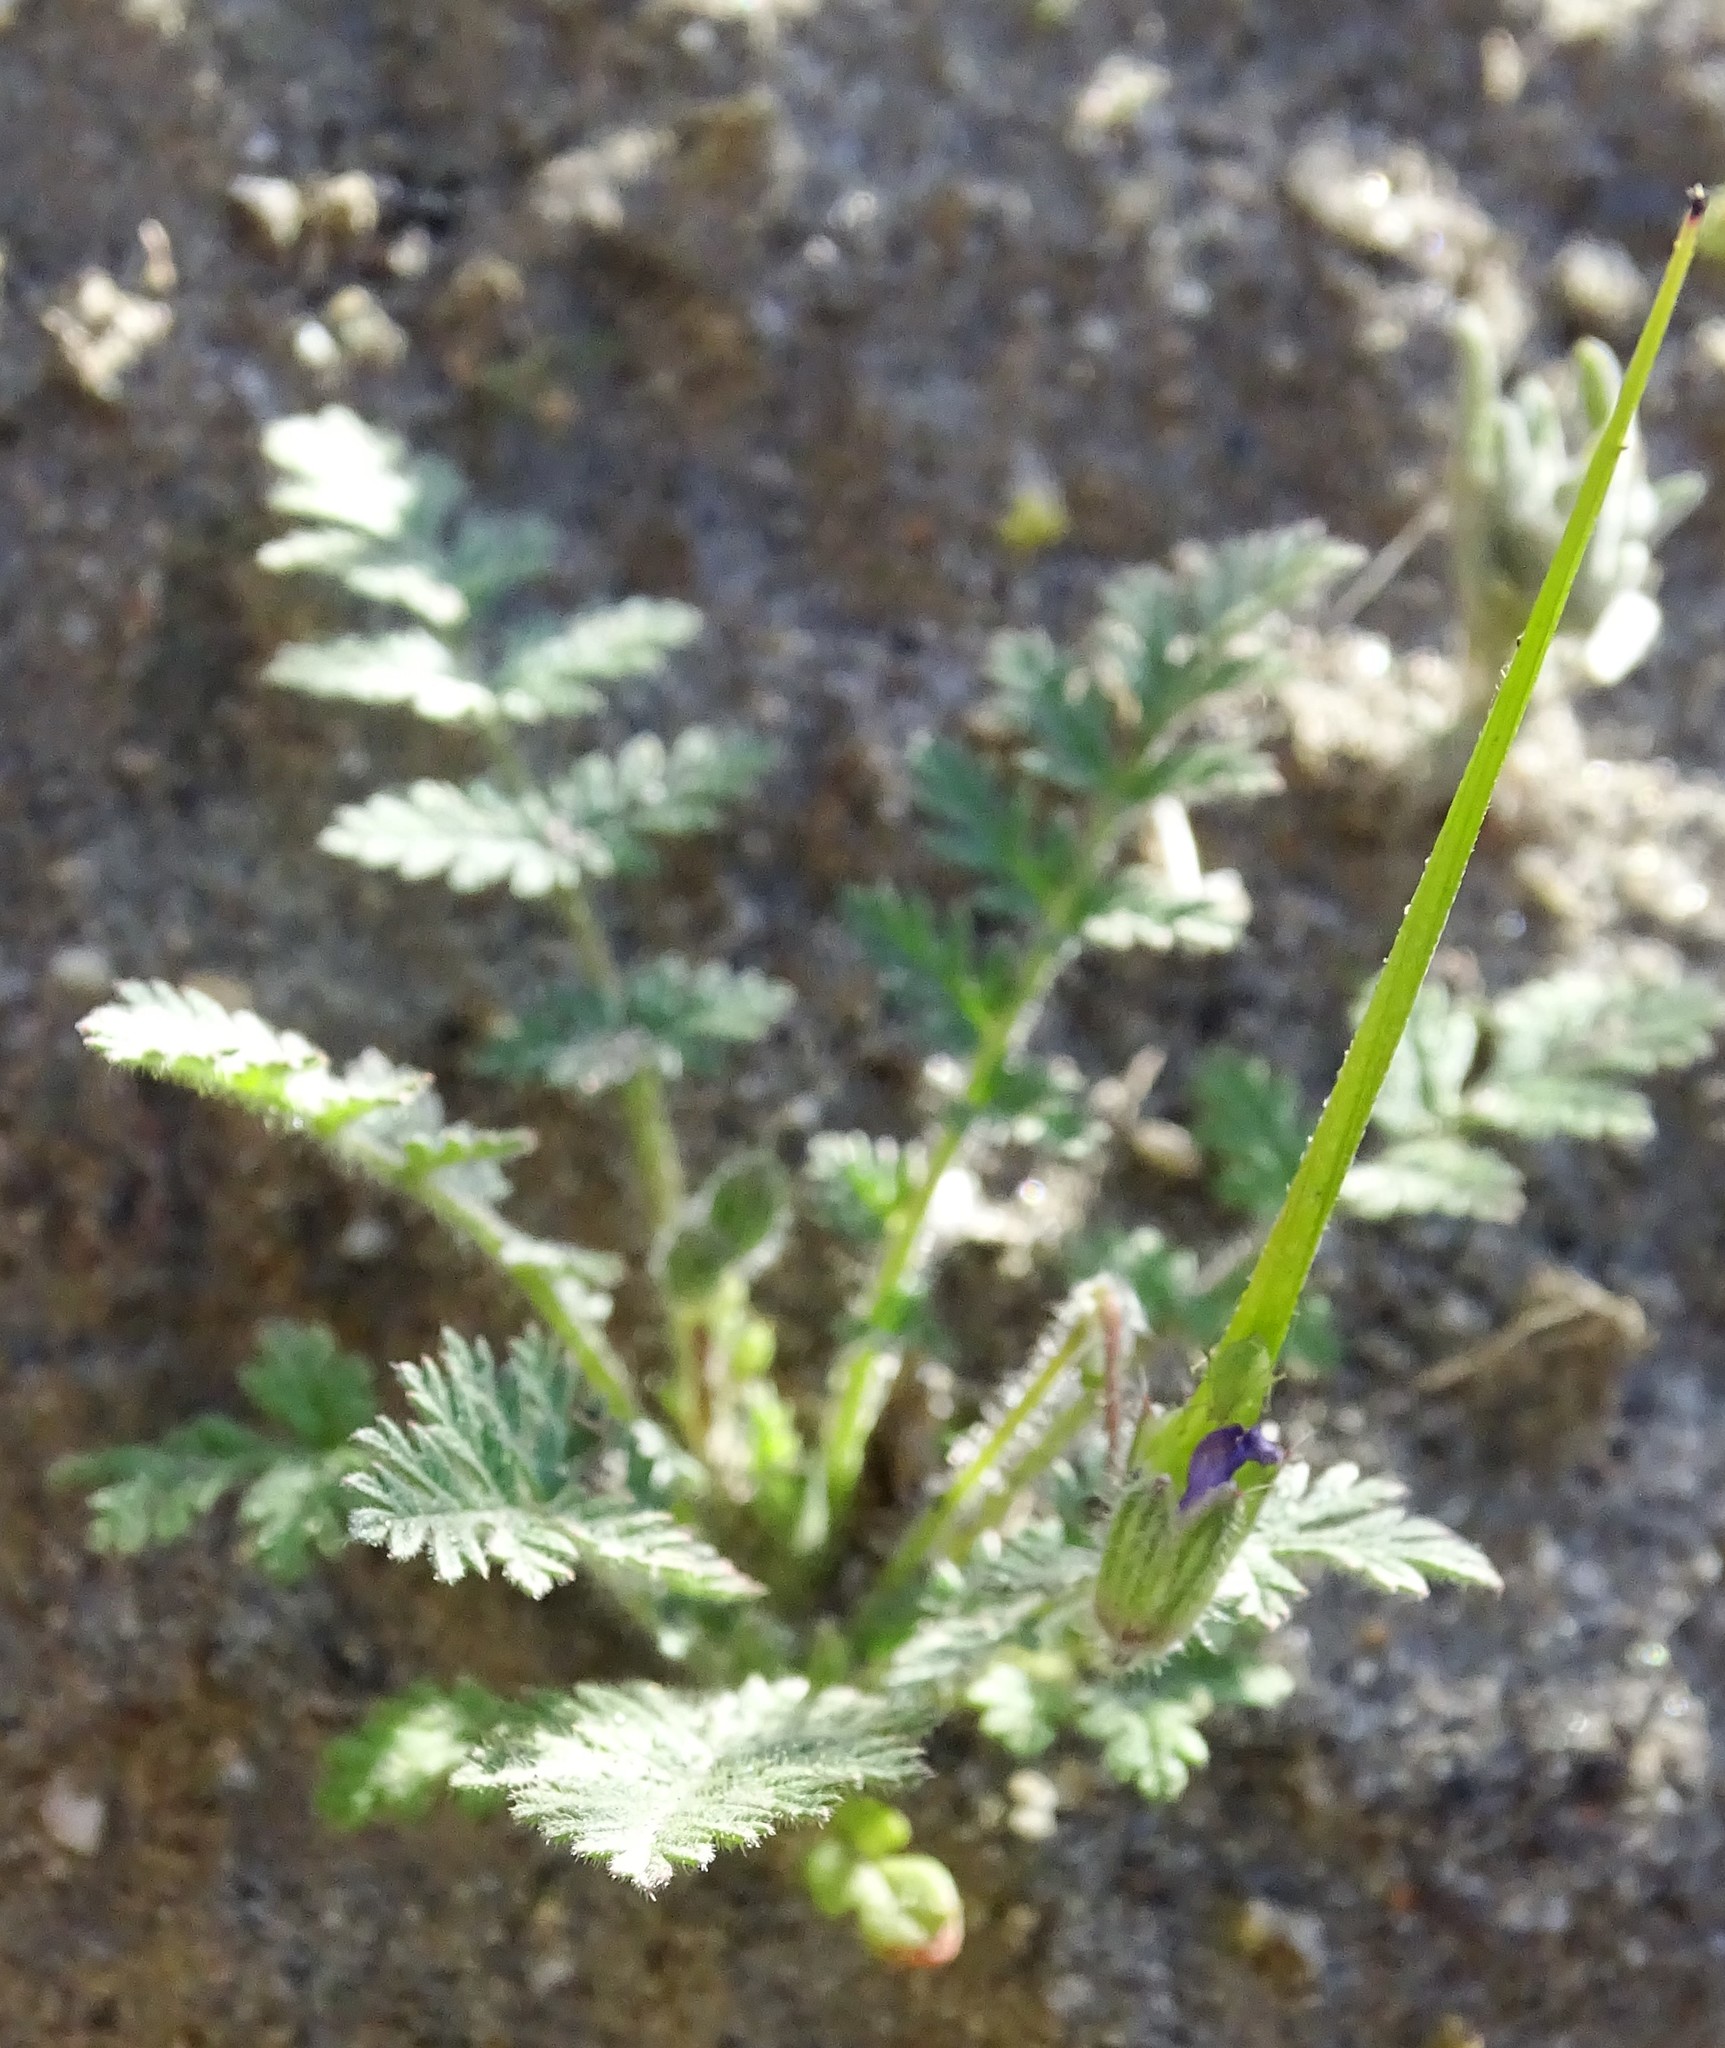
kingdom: Plantae
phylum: Tracheophyta
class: Magnoliopsida
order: Geraniales
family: Geraniaceae
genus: Erodium
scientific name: Erodium cicutarium
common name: Common stork's-bill
